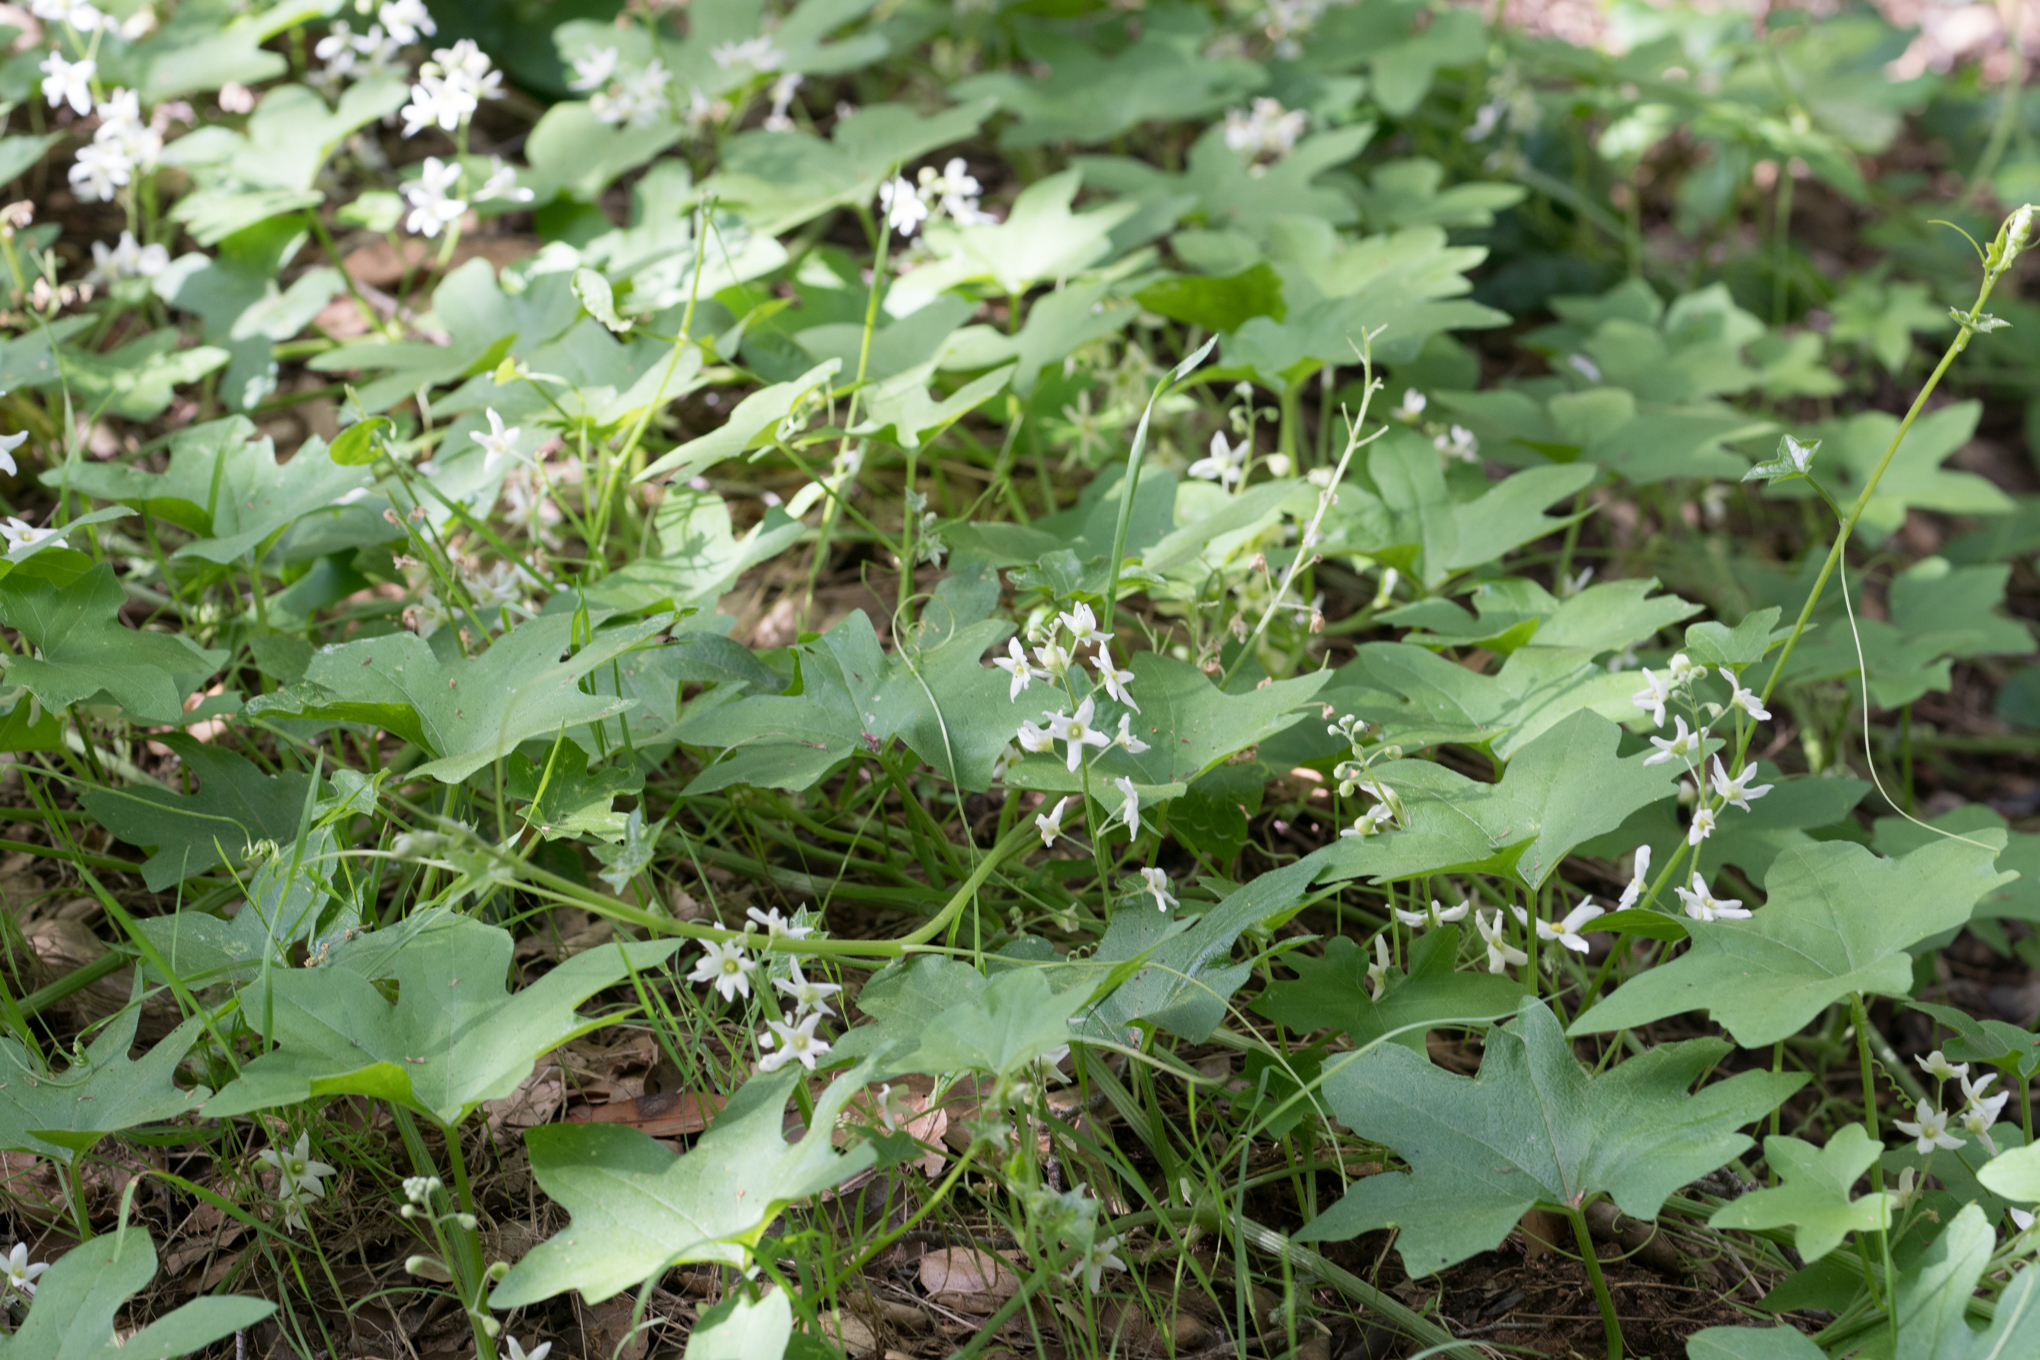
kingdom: Plantae
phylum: Tracheophyta
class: Magnoliopsida
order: Cucurbitales
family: Cucurbitaceae
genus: Marah
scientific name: Marah macrocarpa
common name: Cucamonga manroot
